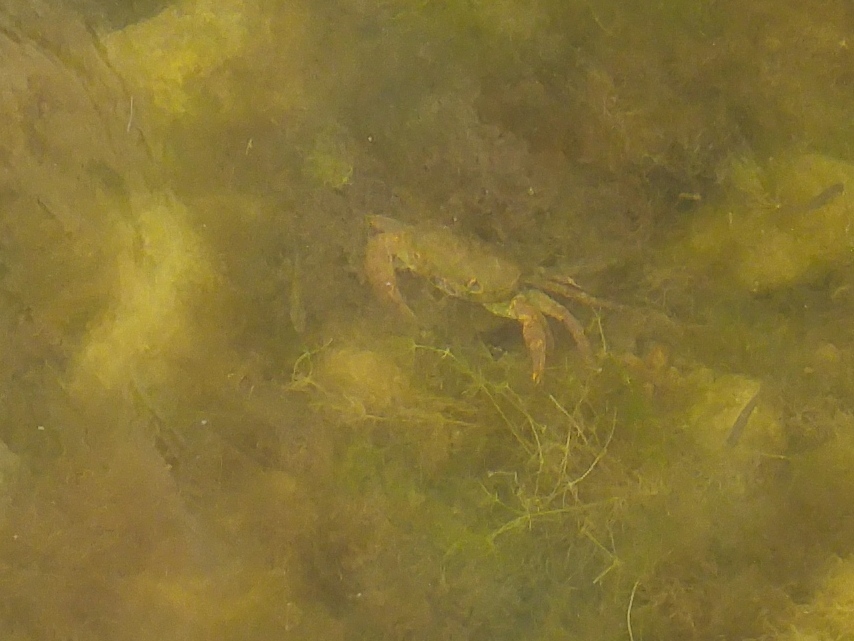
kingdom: Animalia
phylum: Arthropoda
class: Malacostraca
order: Decapoda
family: Potamidae
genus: Potamon
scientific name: Potamon algeriense
